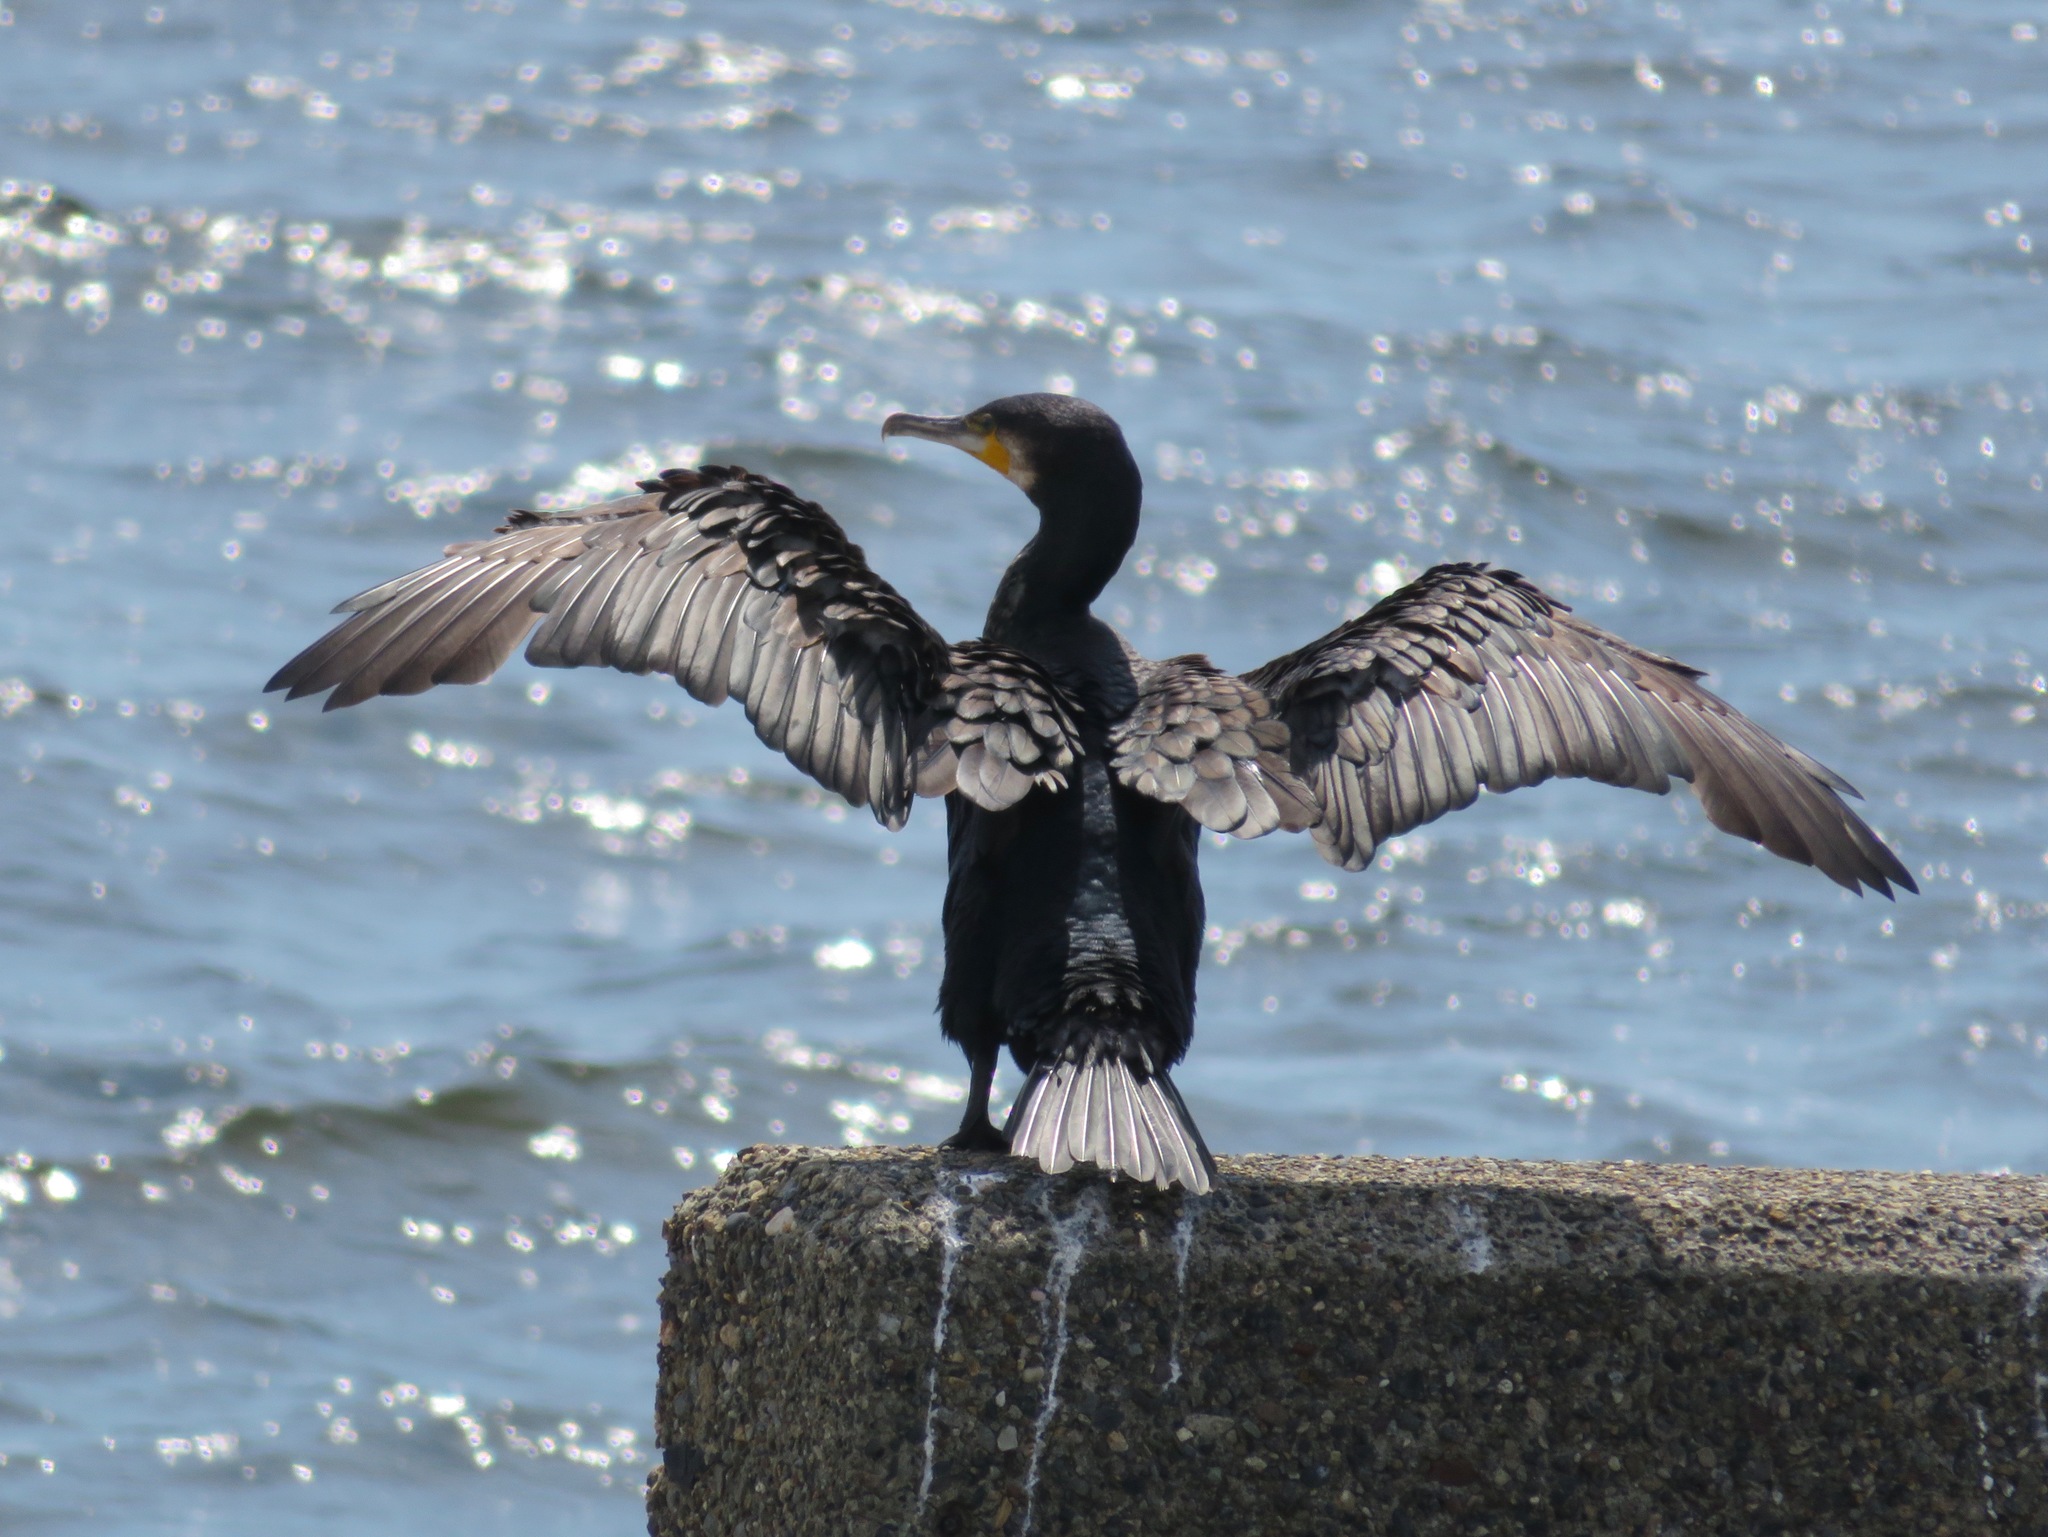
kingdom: Animalia
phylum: Chordata
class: Aves
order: Suliformes
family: Phalacrocoracidae
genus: Phalacrocorax
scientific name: Phalacrocorax carbo
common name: Great cormorant
